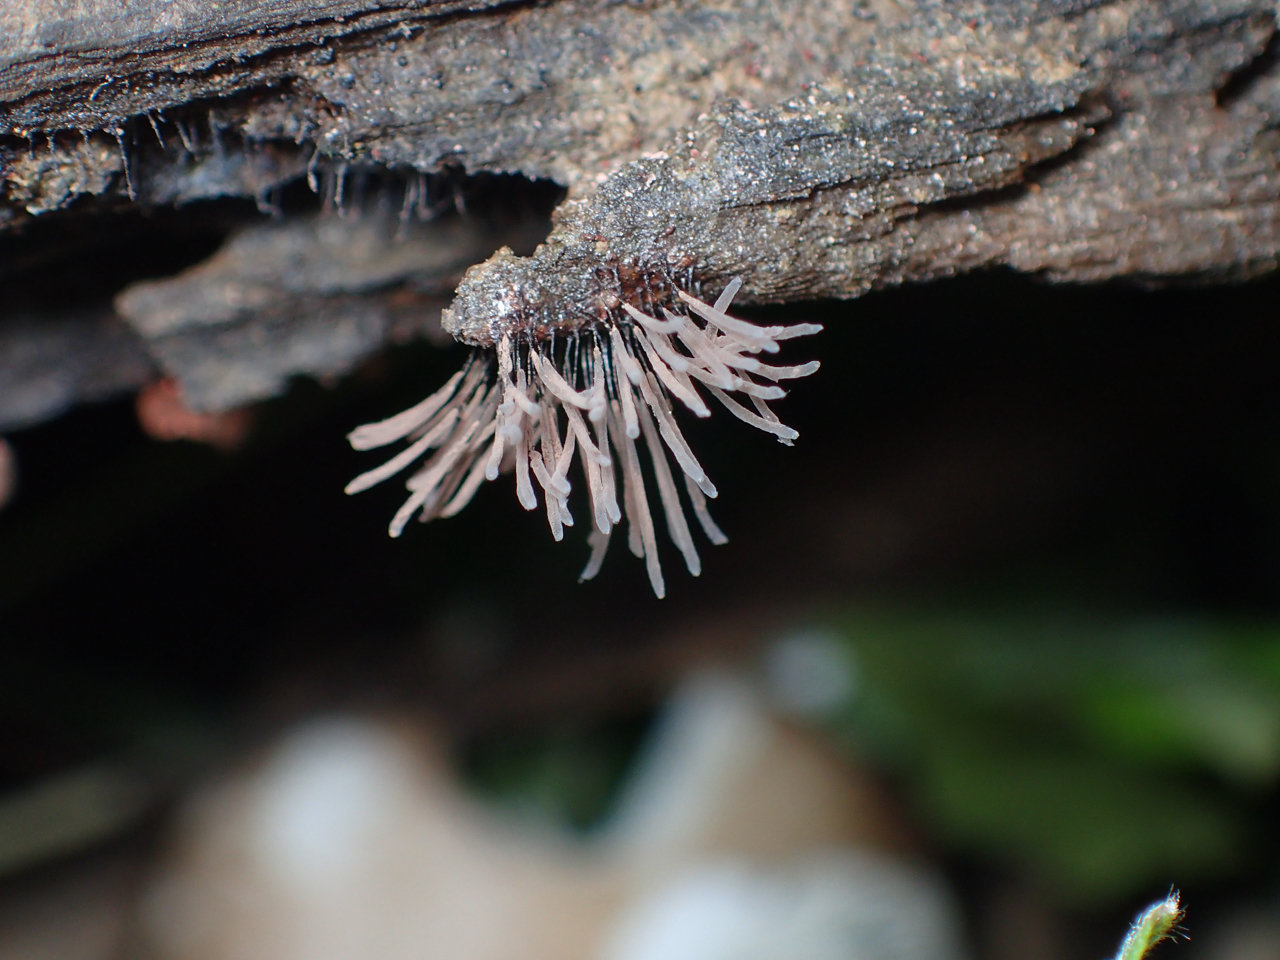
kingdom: Protozoa
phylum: Mycetozoa
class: Myxomycetes
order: Stemonitidales
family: Stemonitidaceae
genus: Stemonitis
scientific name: Stemonitis splendens
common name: Chocolate tube slime
